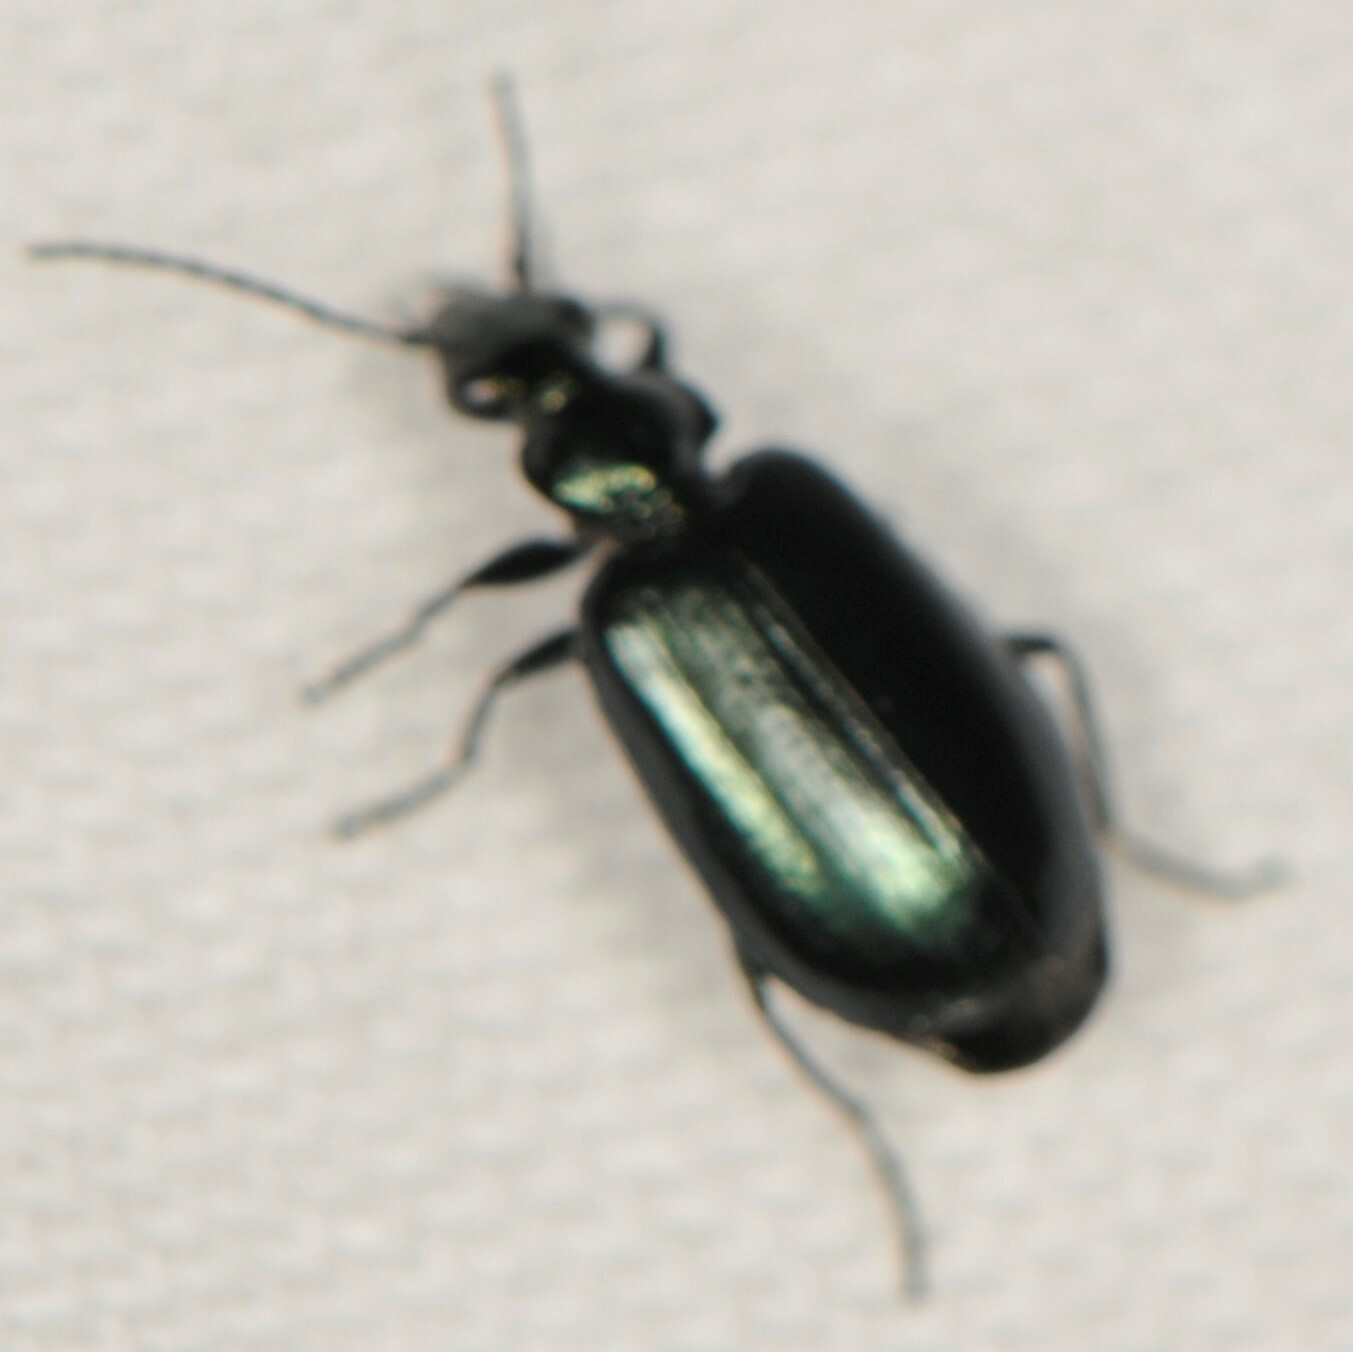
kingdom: Animalia
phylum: Arthropoda
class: Insecta
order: Coleoptera
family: Carabidae
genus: Lebia
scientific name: Lebia viridis
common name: Flower lebia beetle
